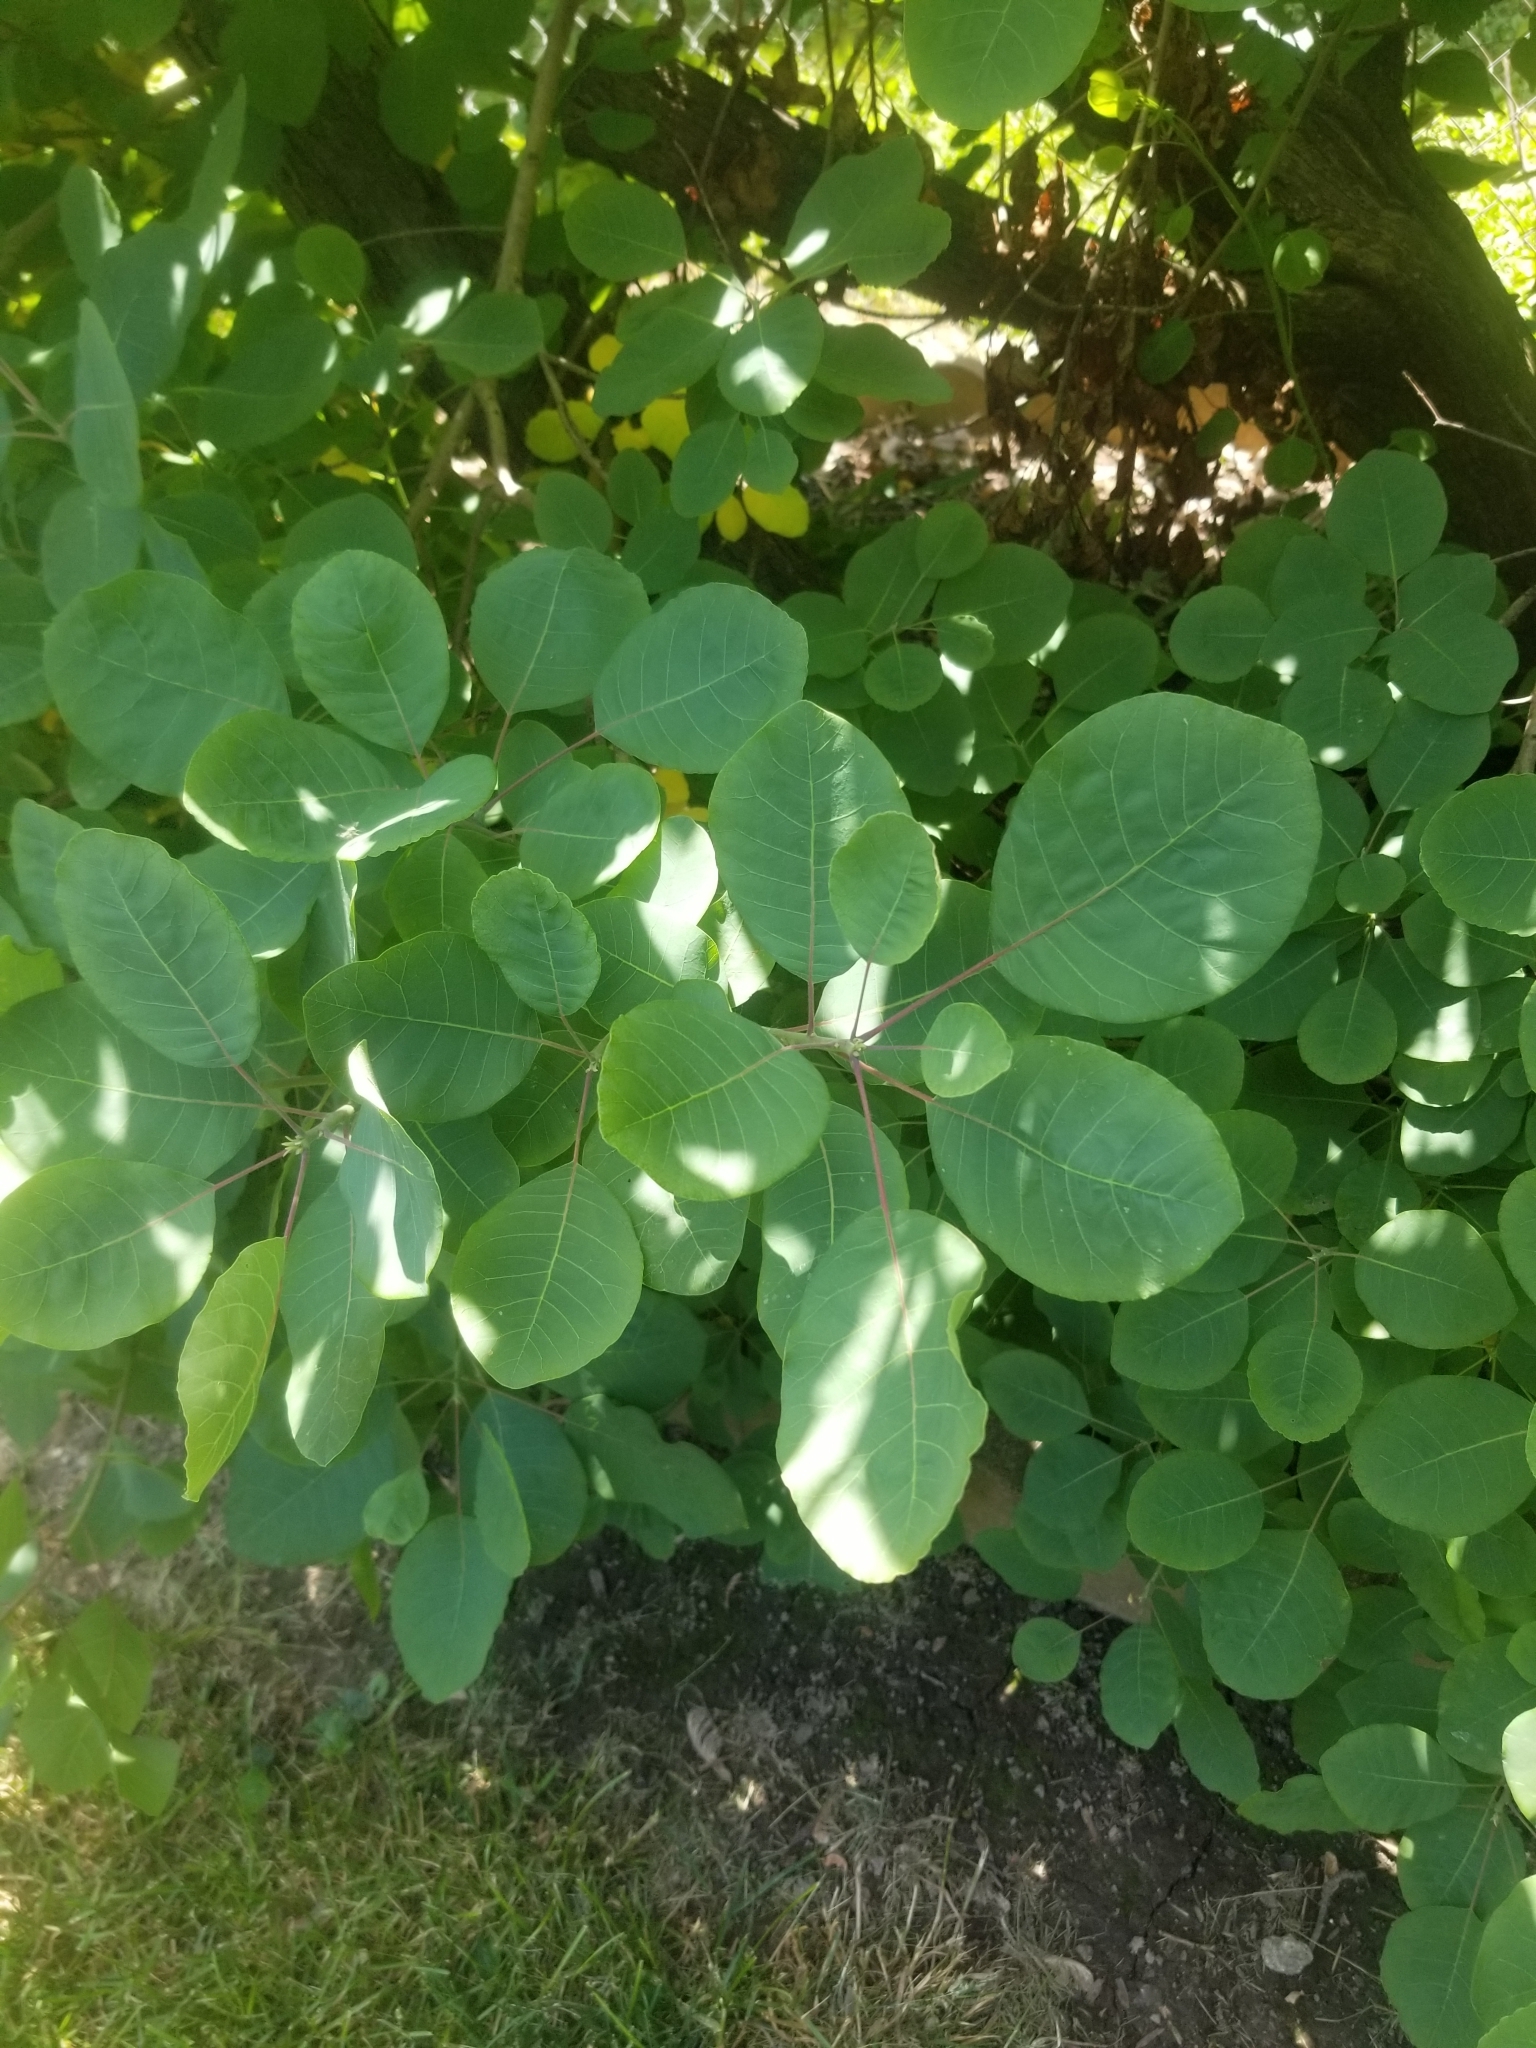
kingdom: Plantae
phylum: Tracheophyta
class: Magnoliopsida
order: Sapindales
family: Anacardiaceae
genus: Cotinus
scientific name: Cotinus obovatus
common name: Chittamwood
